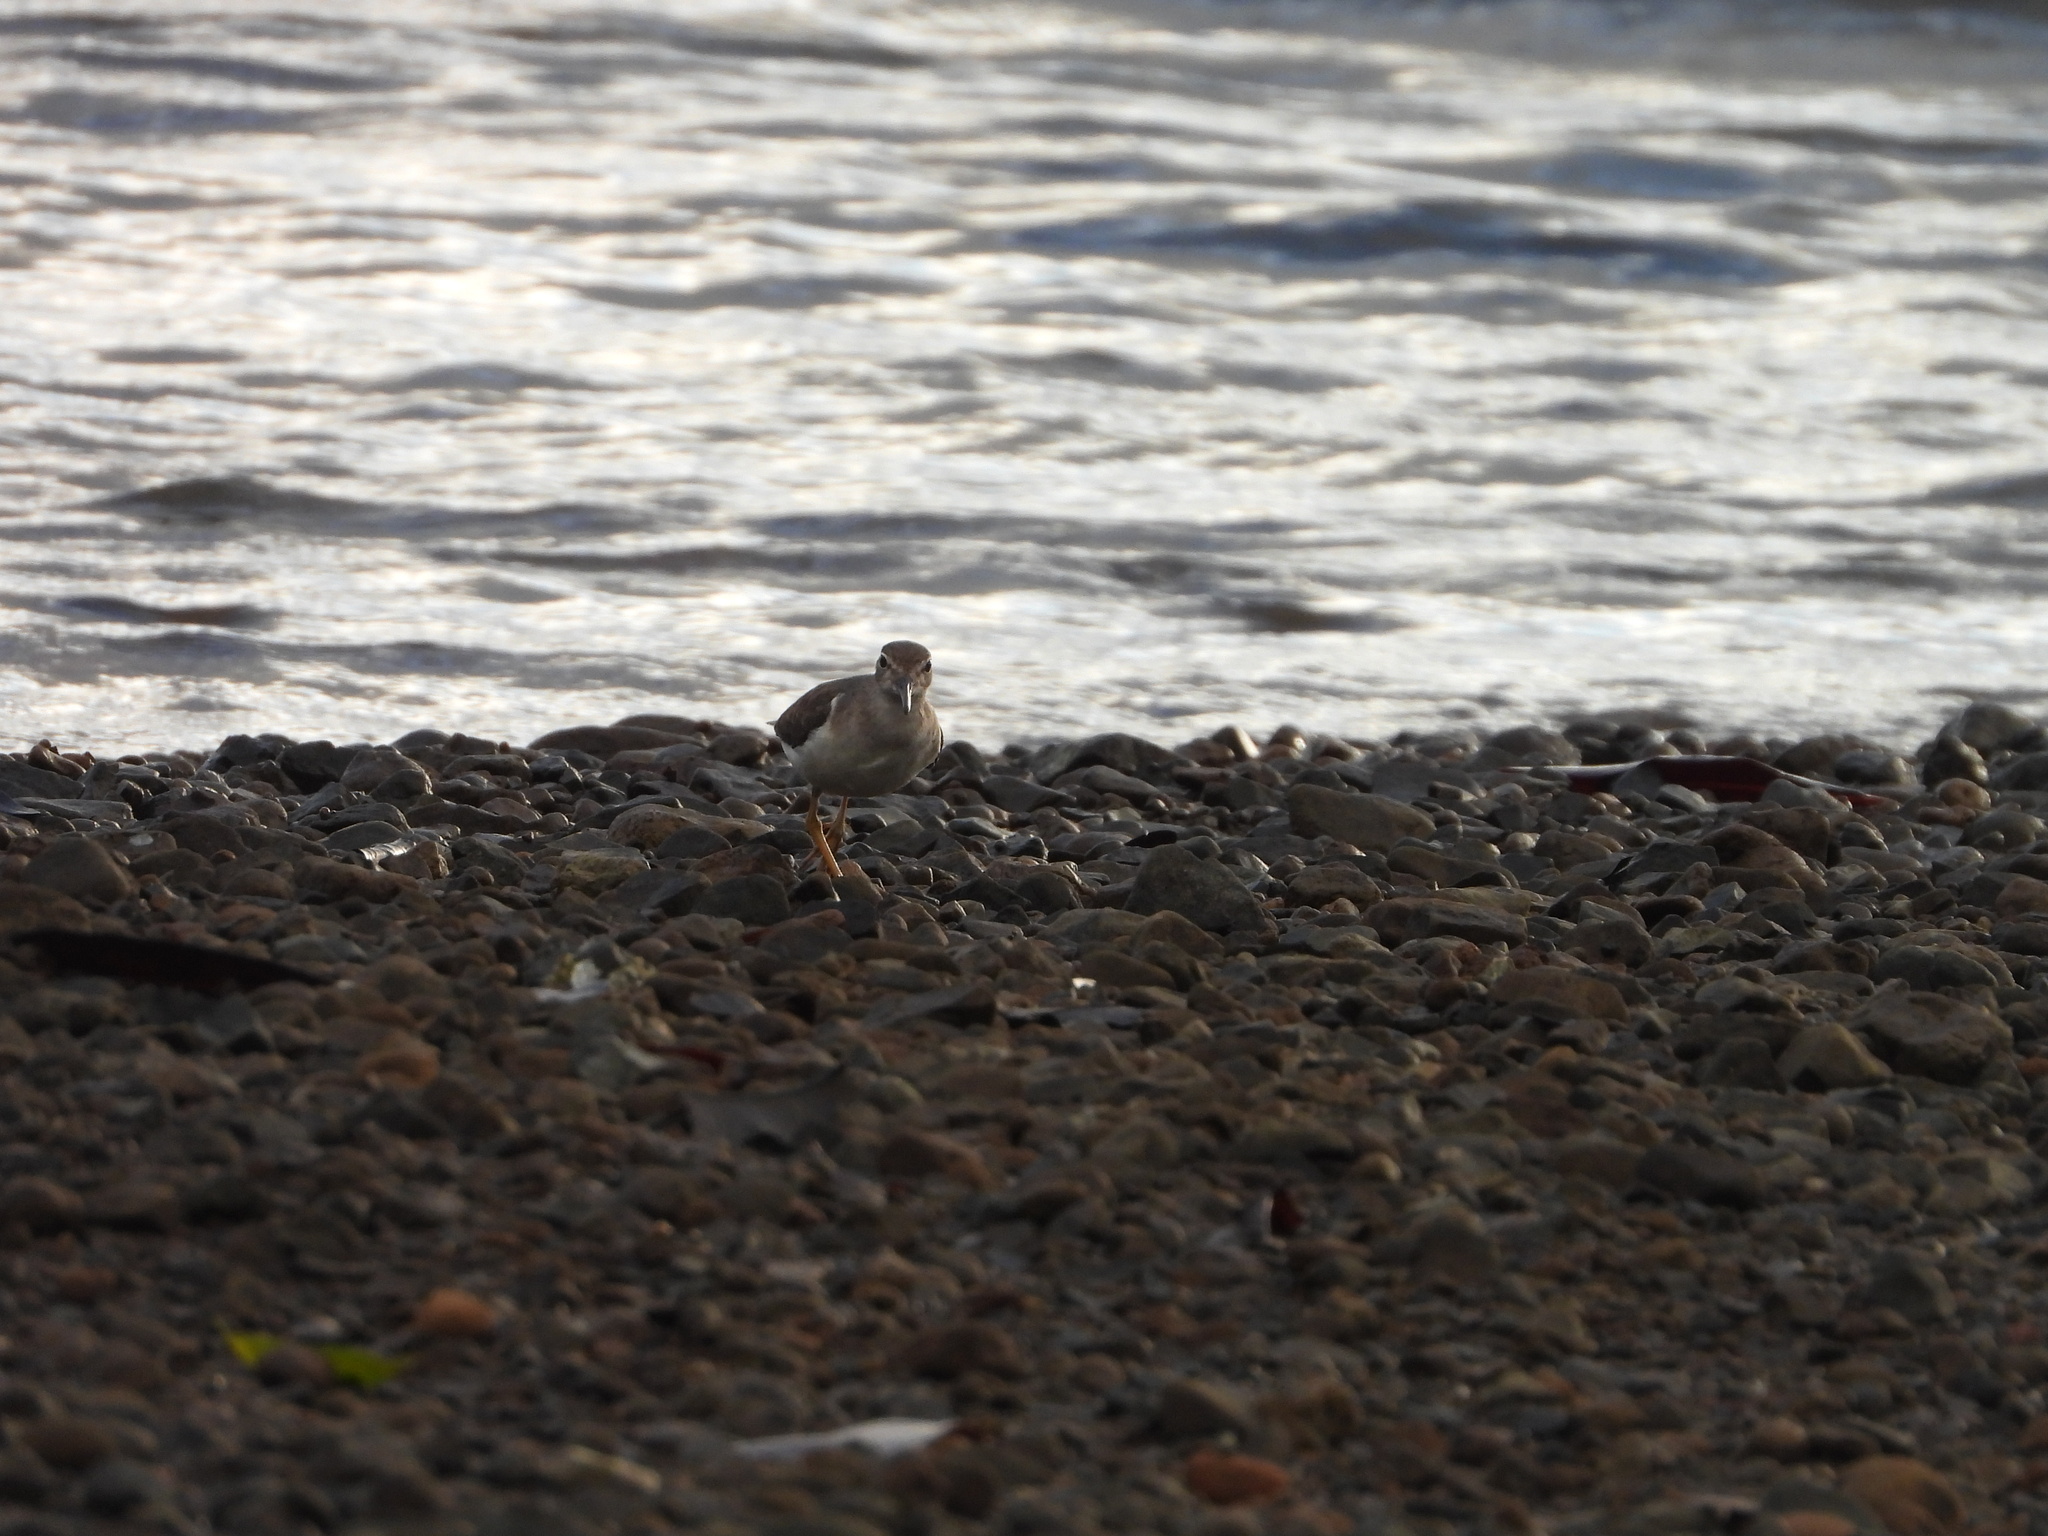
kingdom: Animalia
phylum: Chordata
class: Aves
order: Charadriiformes
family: Scolopacidae
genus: Actitis
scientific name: Actitis macularius
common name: Spotted sandpiper
